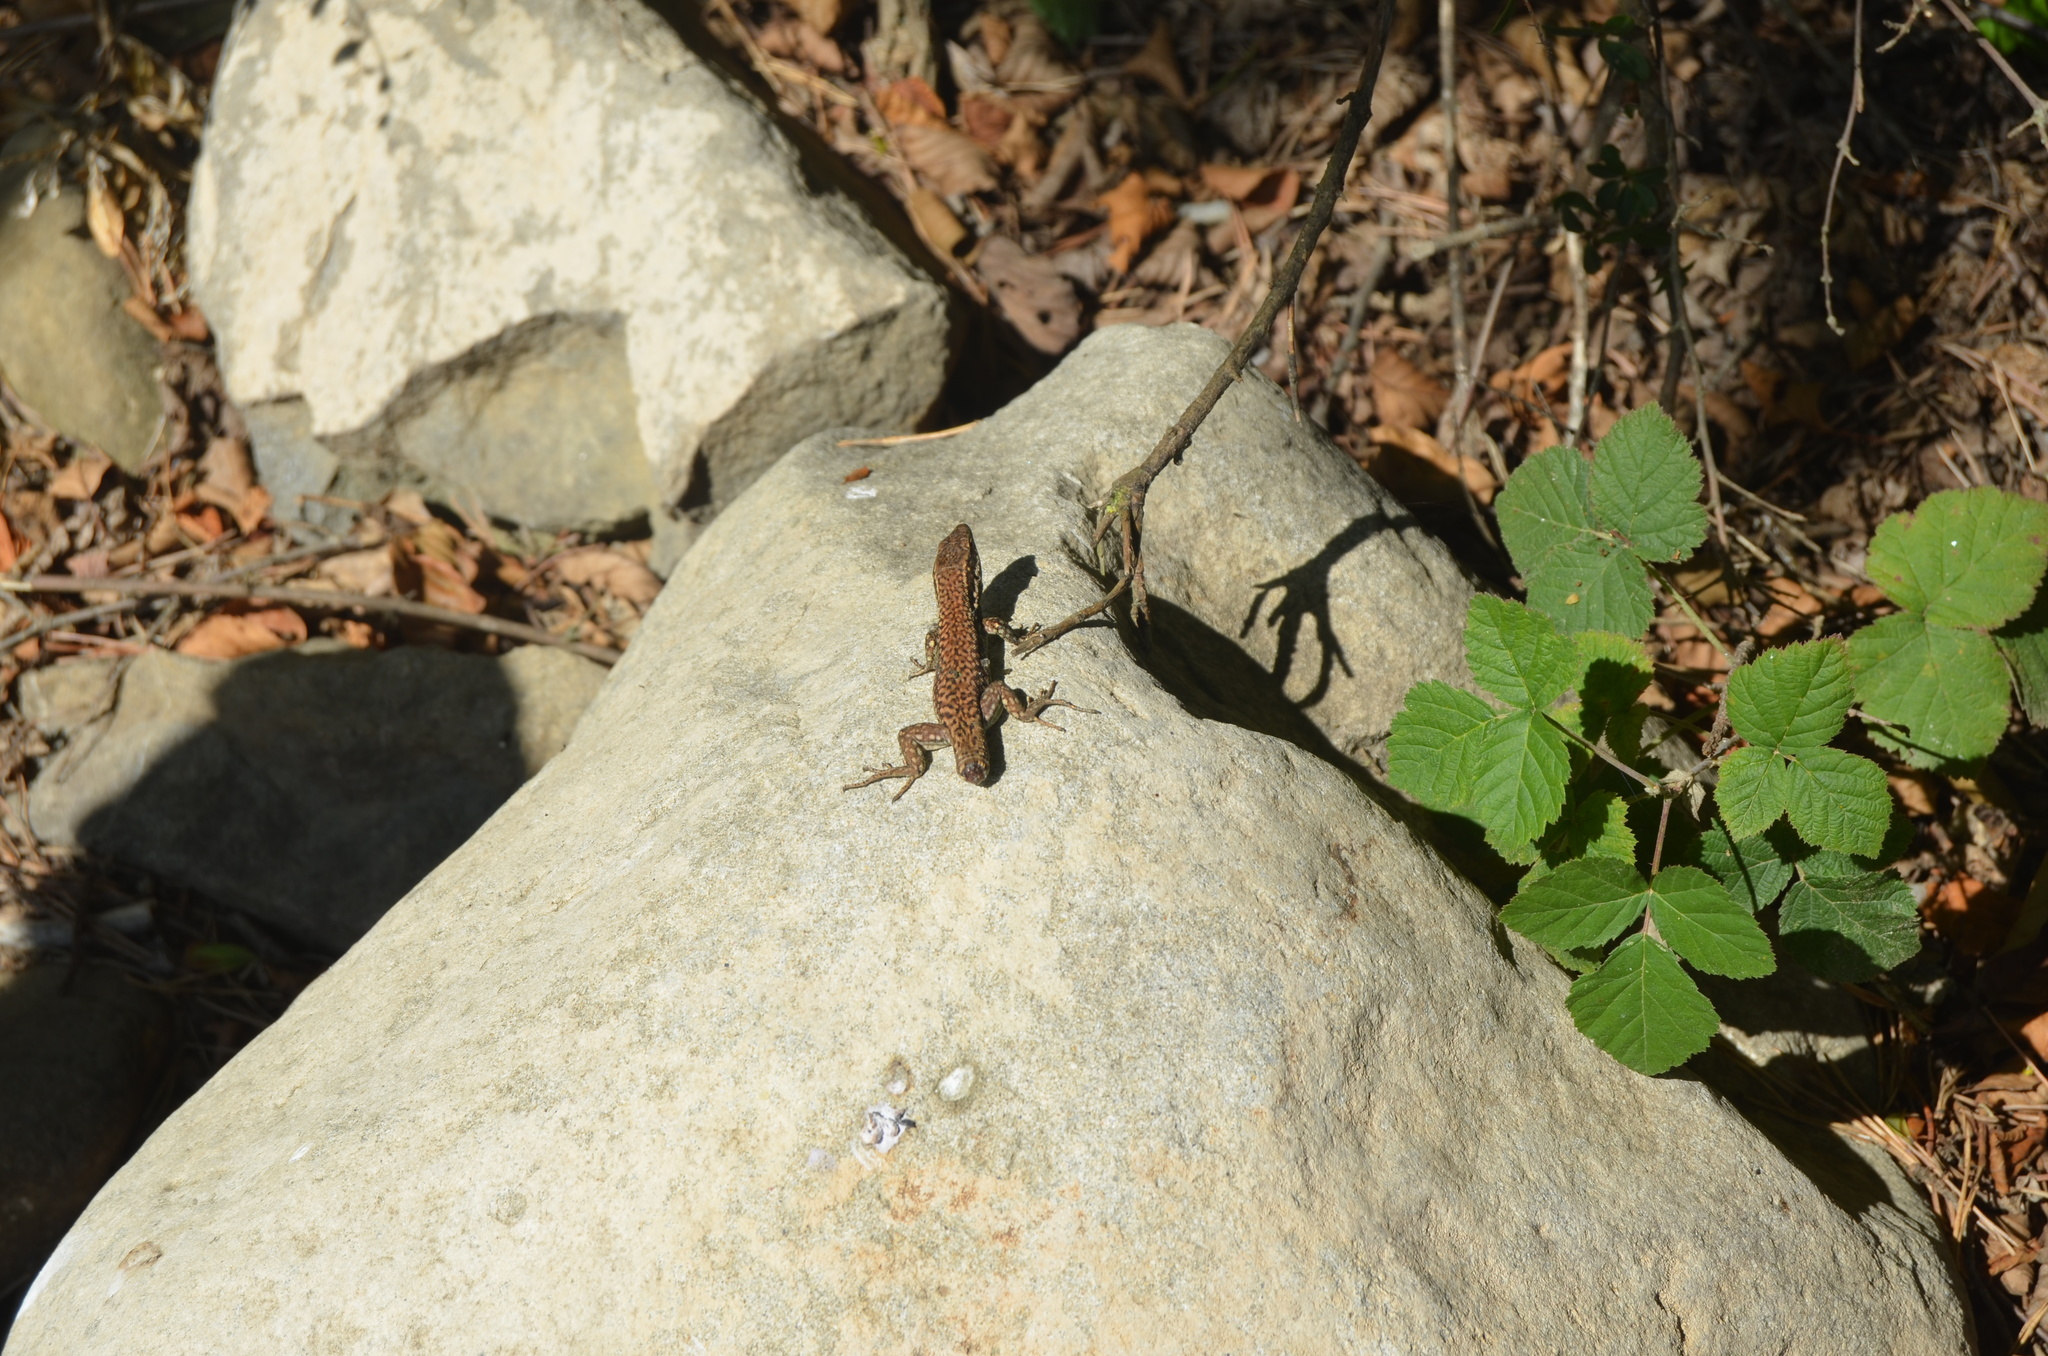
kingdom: Animalia
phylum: Chordata
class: Squamata
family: Lacertidae
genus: Podarcis
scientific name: Podarcis muralis
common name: Common wall lizard
